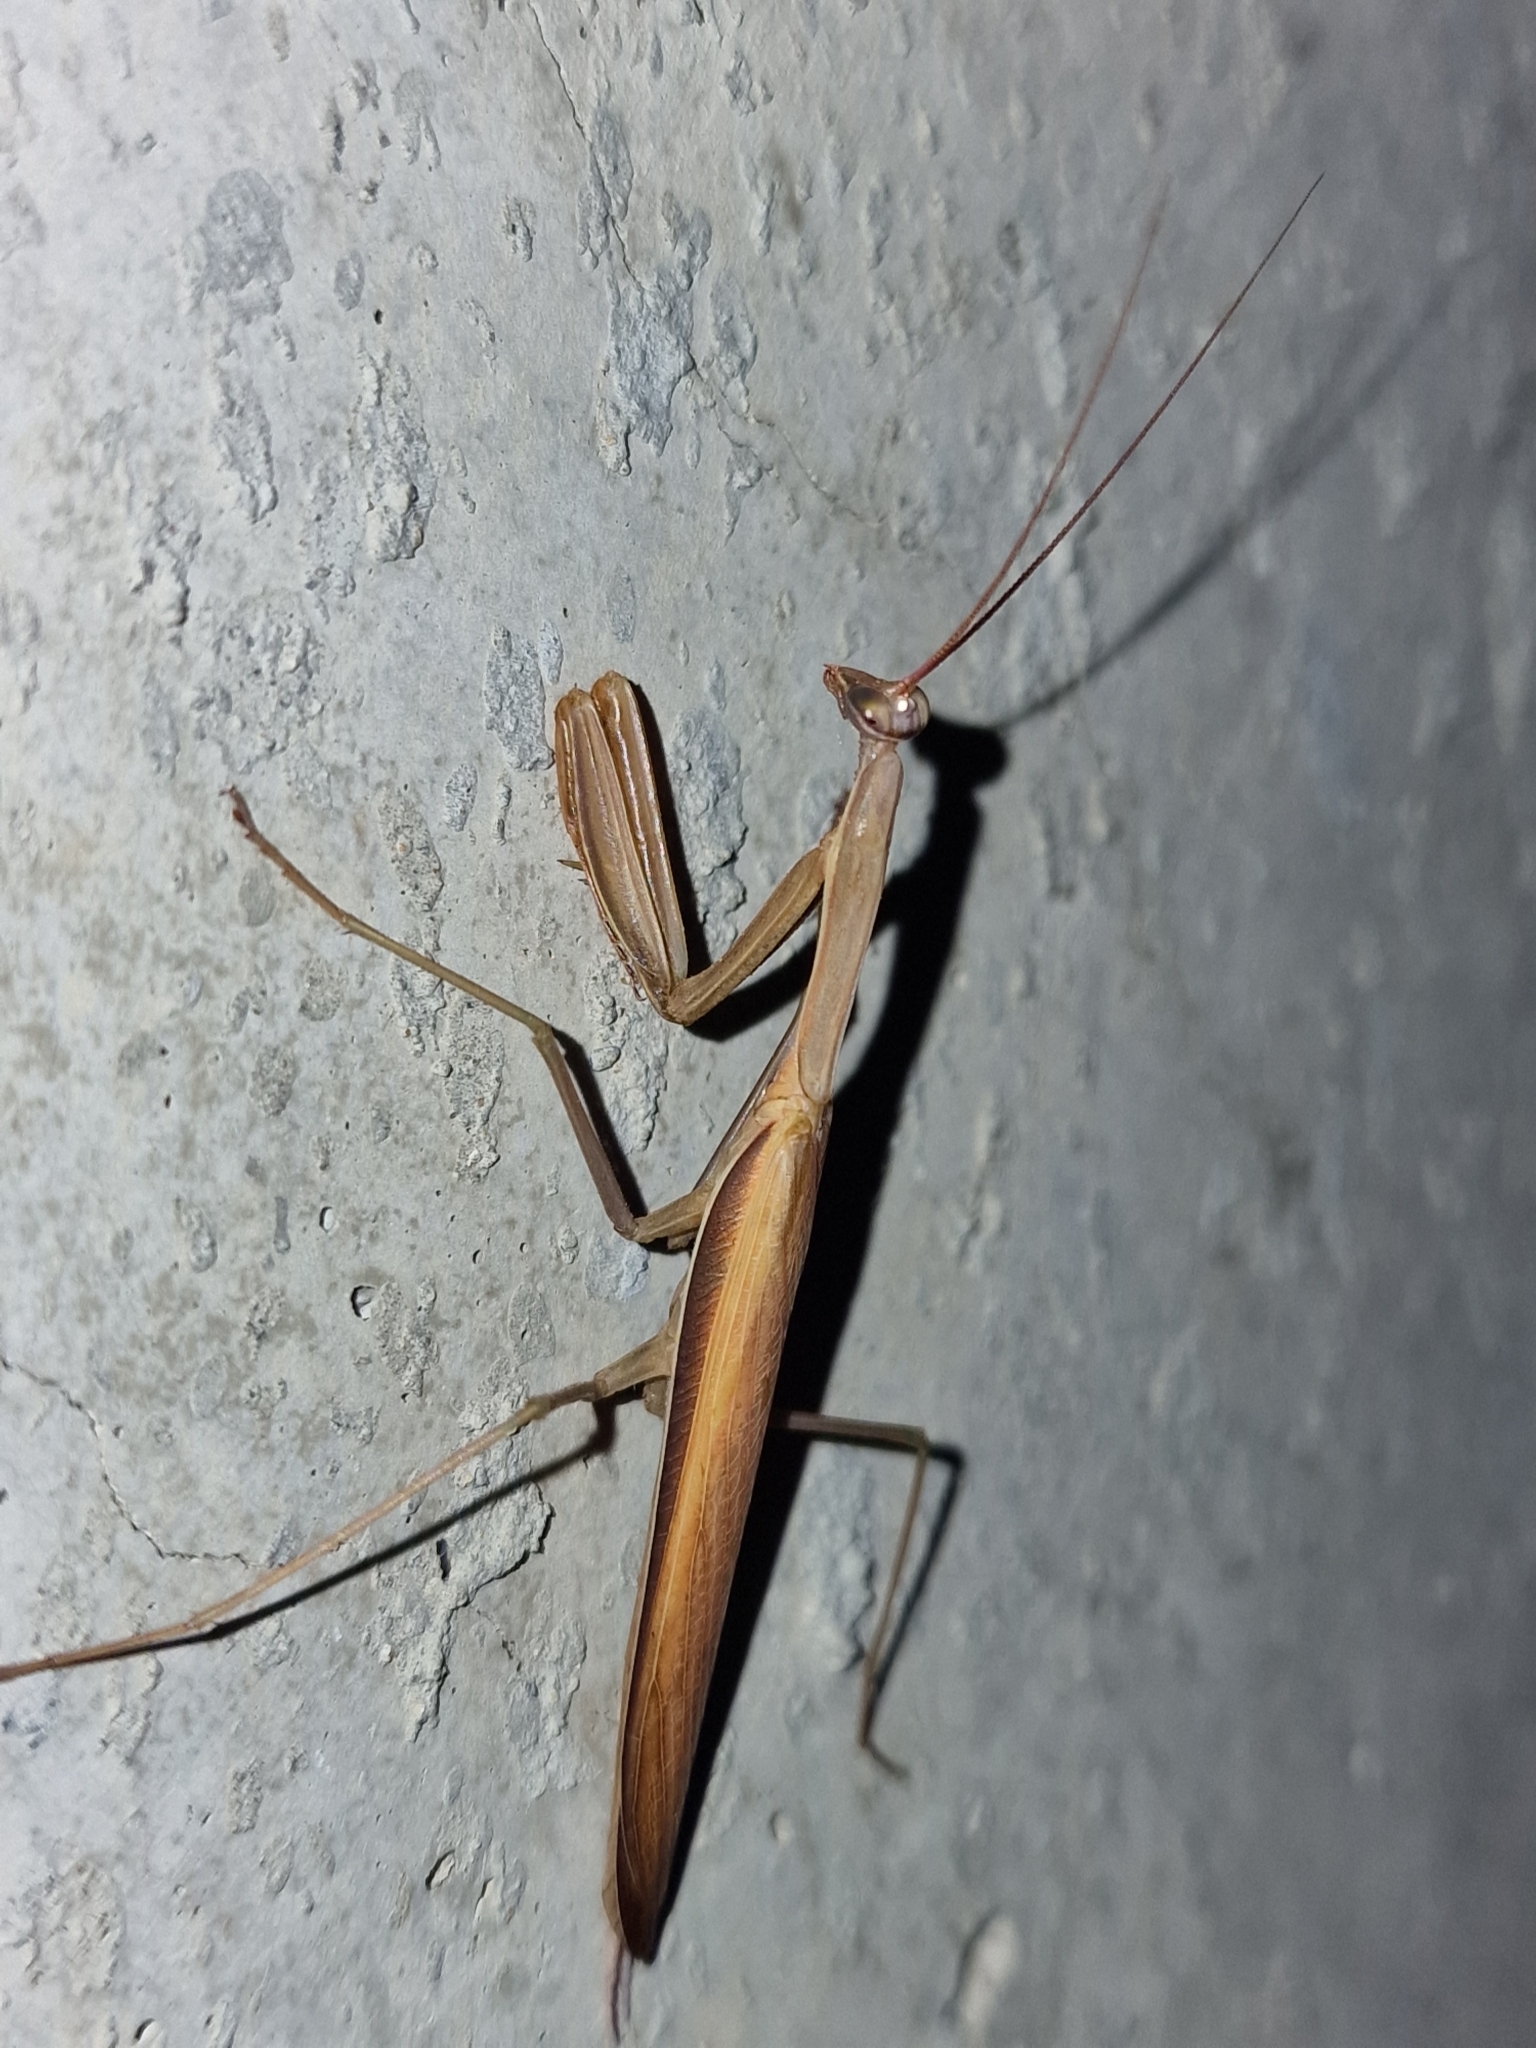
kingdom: Animalia
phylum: Arthropoda
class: Insecta
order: Mantodea
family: Mantidae
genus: Mantis
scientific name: Mantis religiosa
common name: Praying mantis
